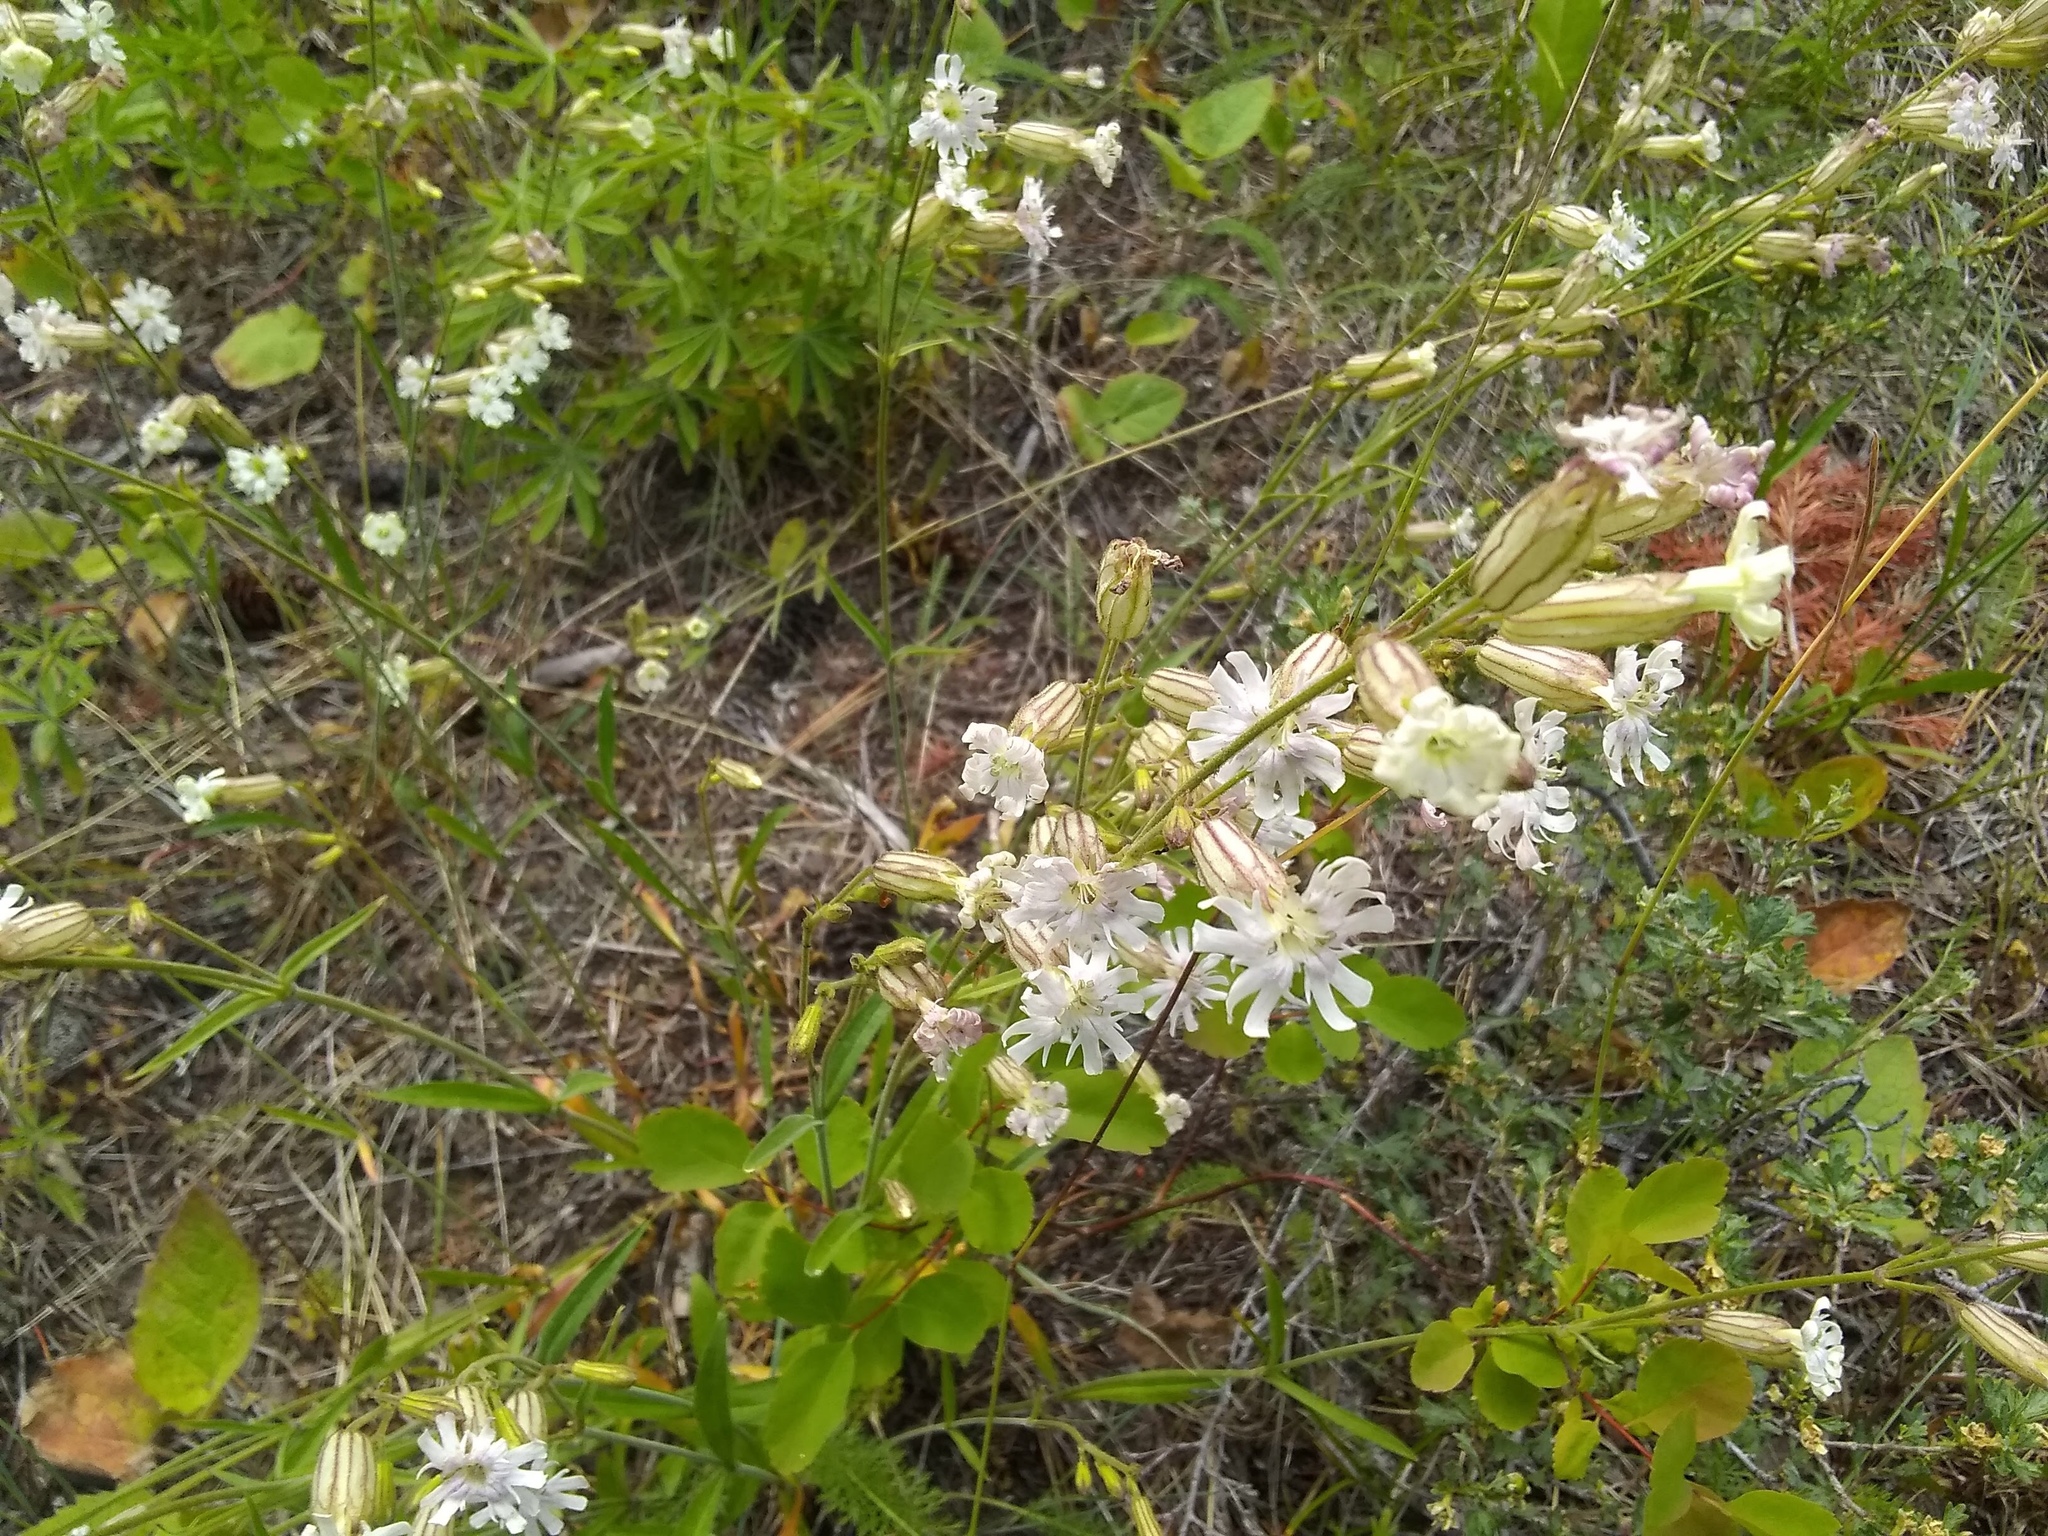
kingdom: Plantae
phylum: Tracheophyta
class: Magnoliopsida
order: Caryophyllales
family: Caryophyllaceae
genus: Silene
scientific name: Silene douglasii
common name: Douglas's catchfly
